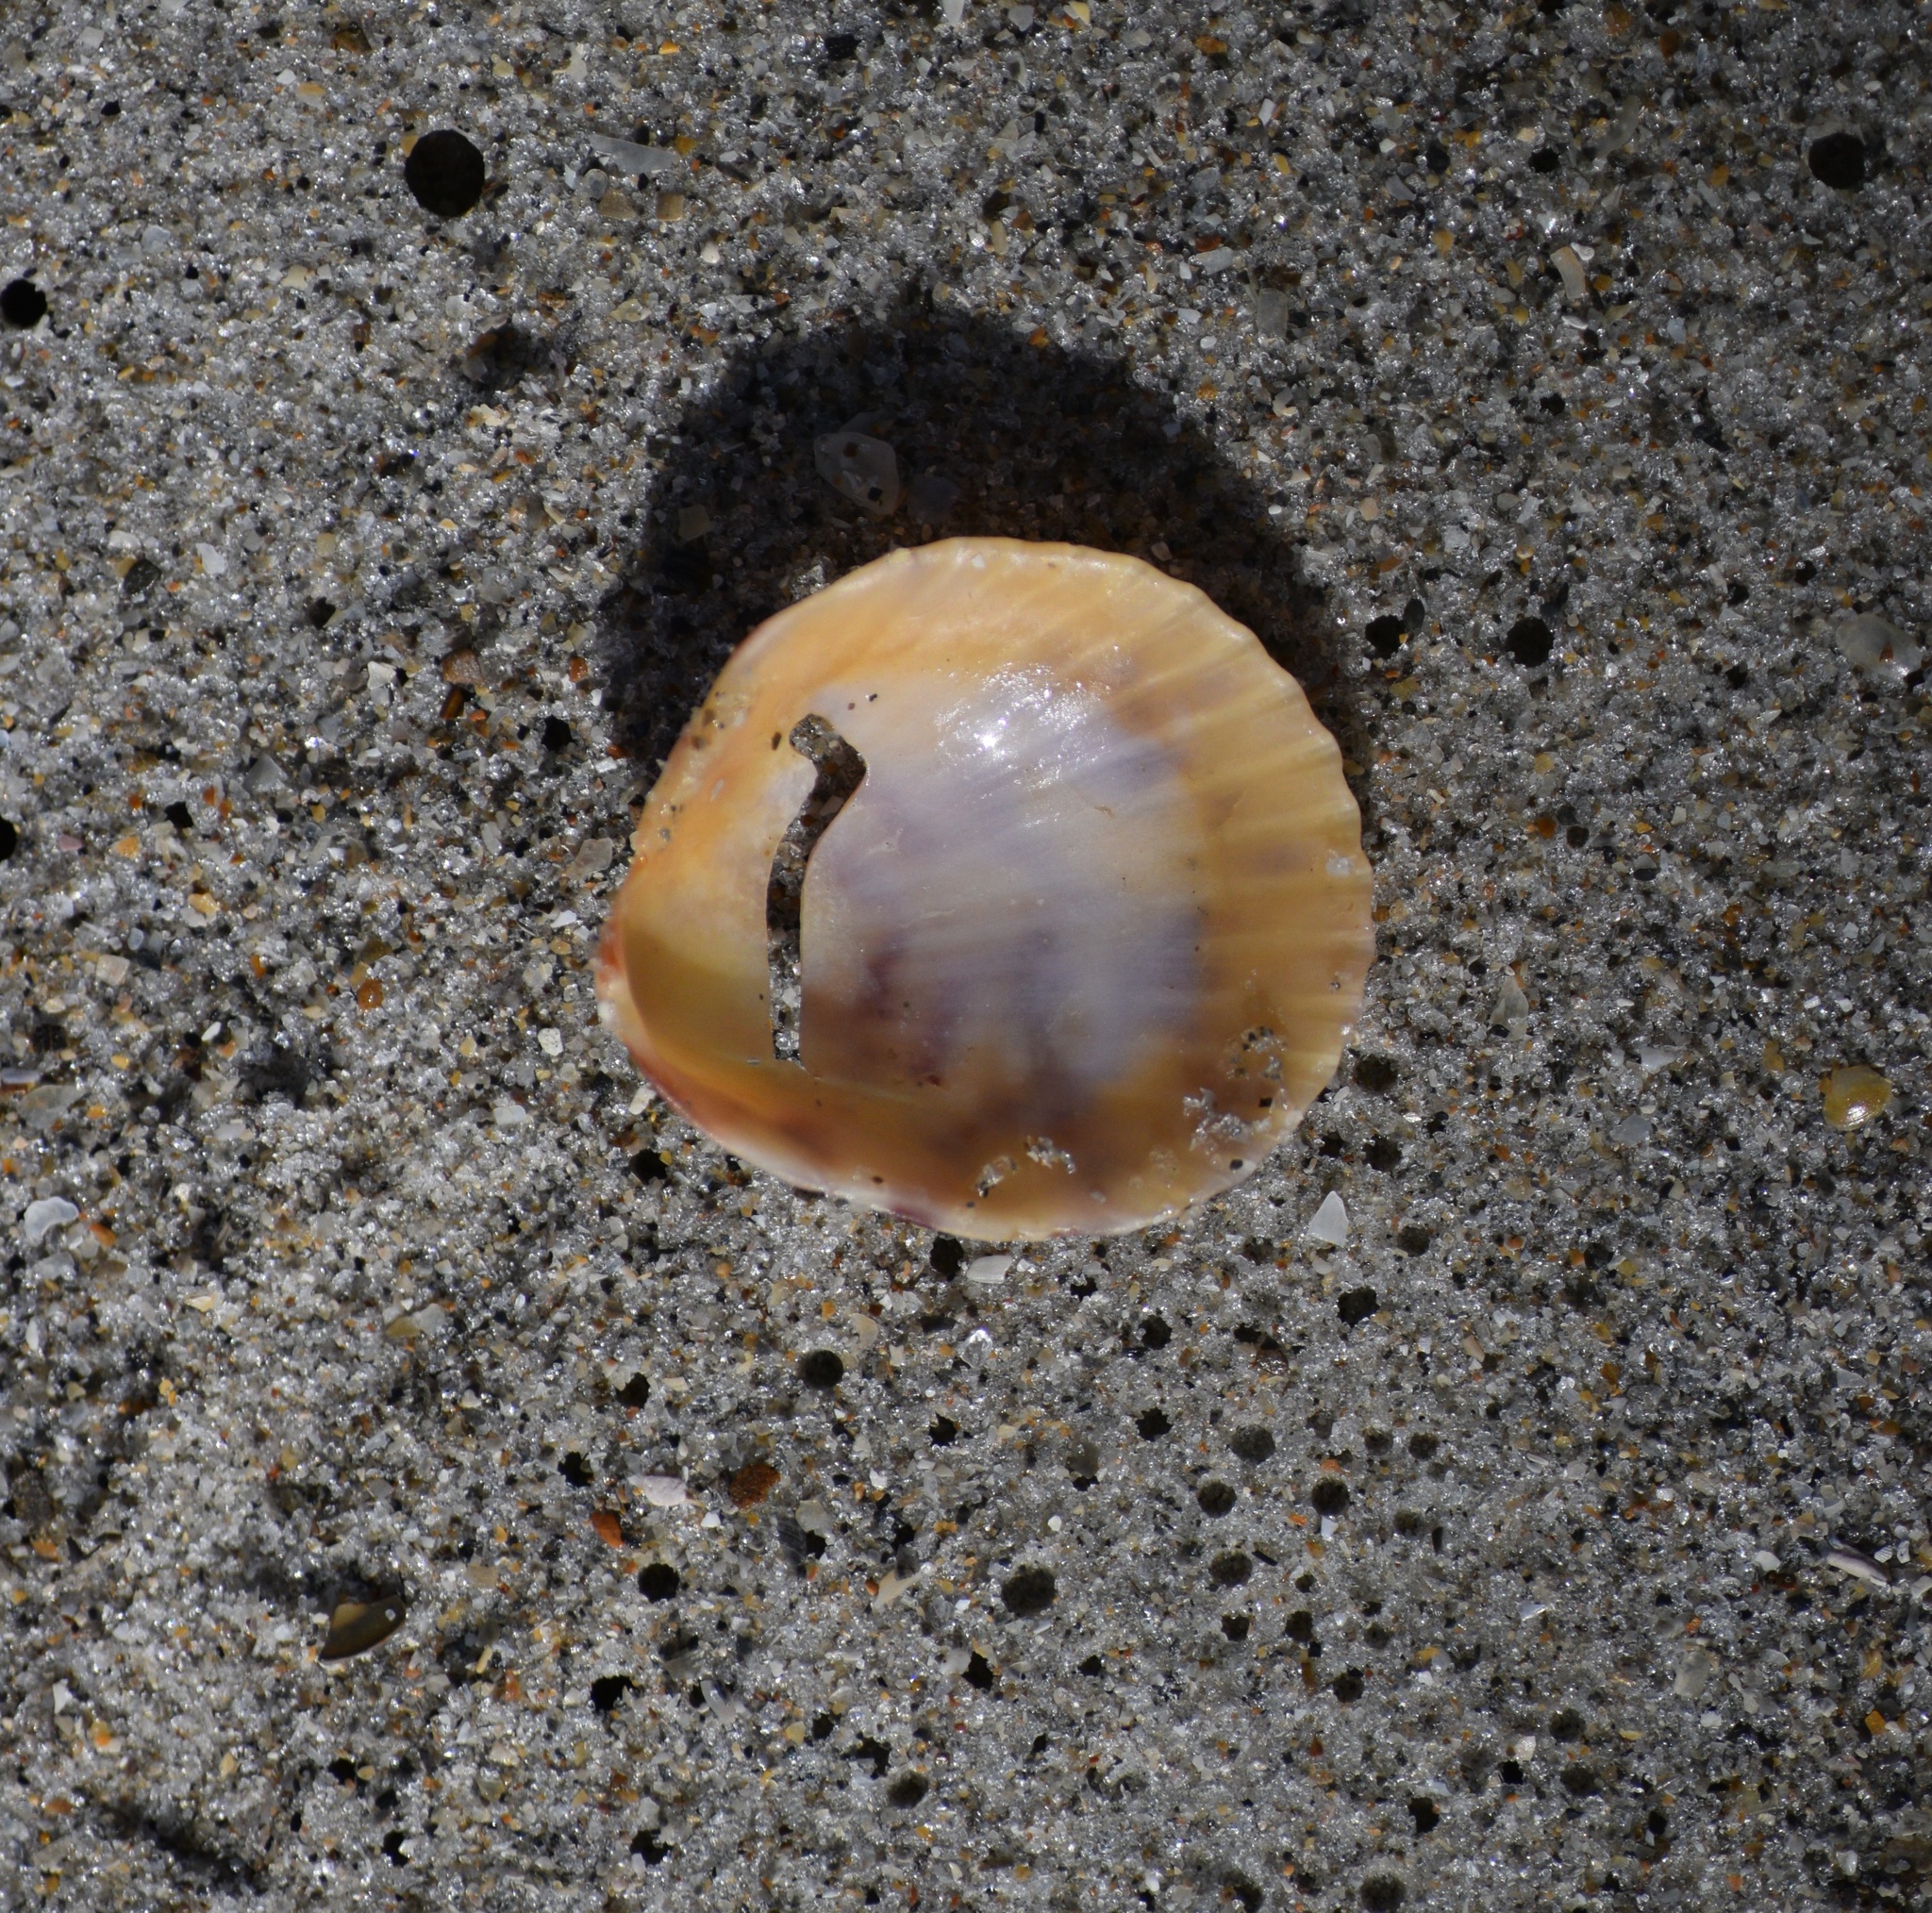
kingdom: Animalia
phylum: Mollusca
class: Bivalvia
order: Pectinida
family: Pectinidae
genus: Argopecten
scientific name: Argopecten gibbus
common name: Atlantic calico scallop
